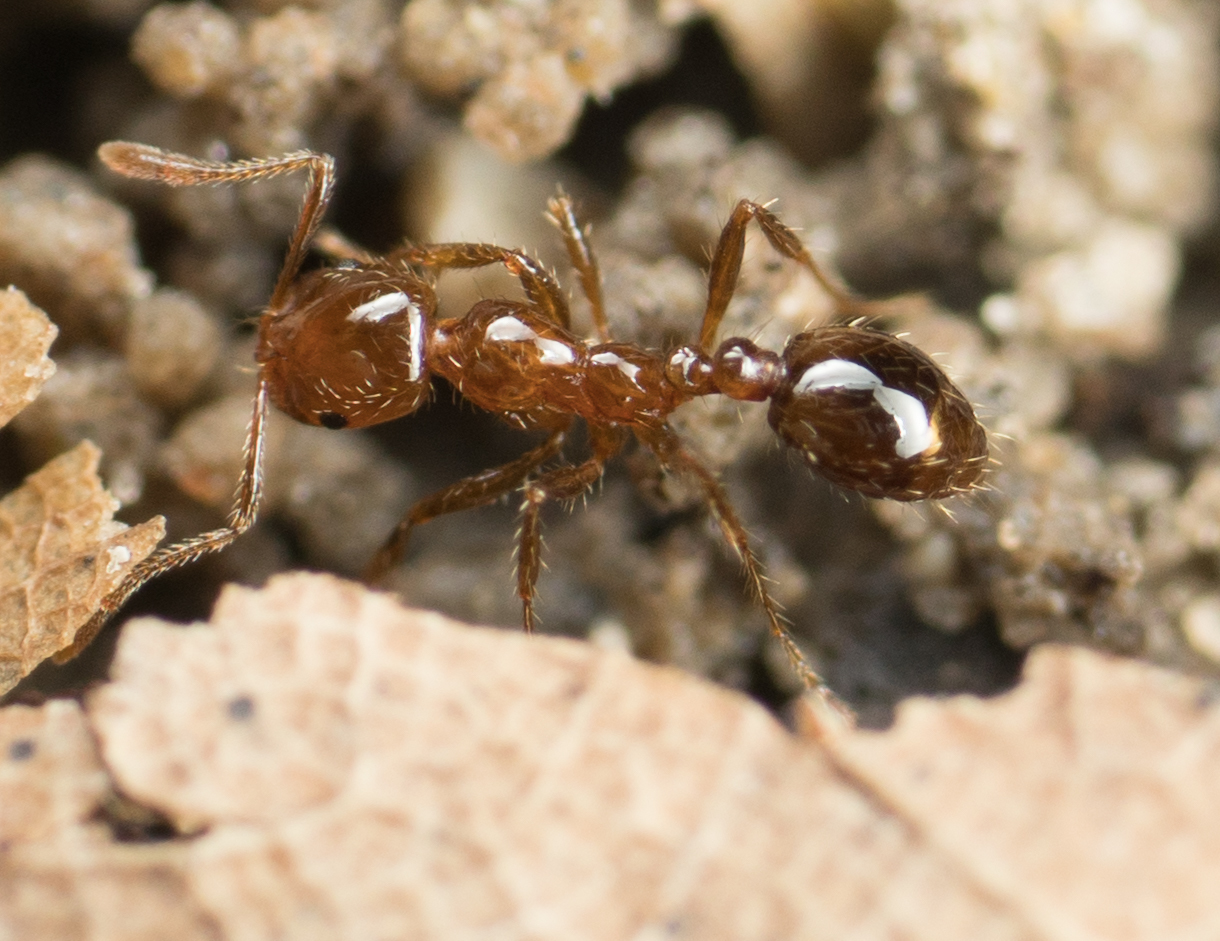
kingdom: Animalia
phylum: Arthropoda
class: Insecta
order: Hymenoptera
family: Formicidae
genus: Solenopsis
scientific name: Solenopsis invicta
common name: Red imported fire ant
